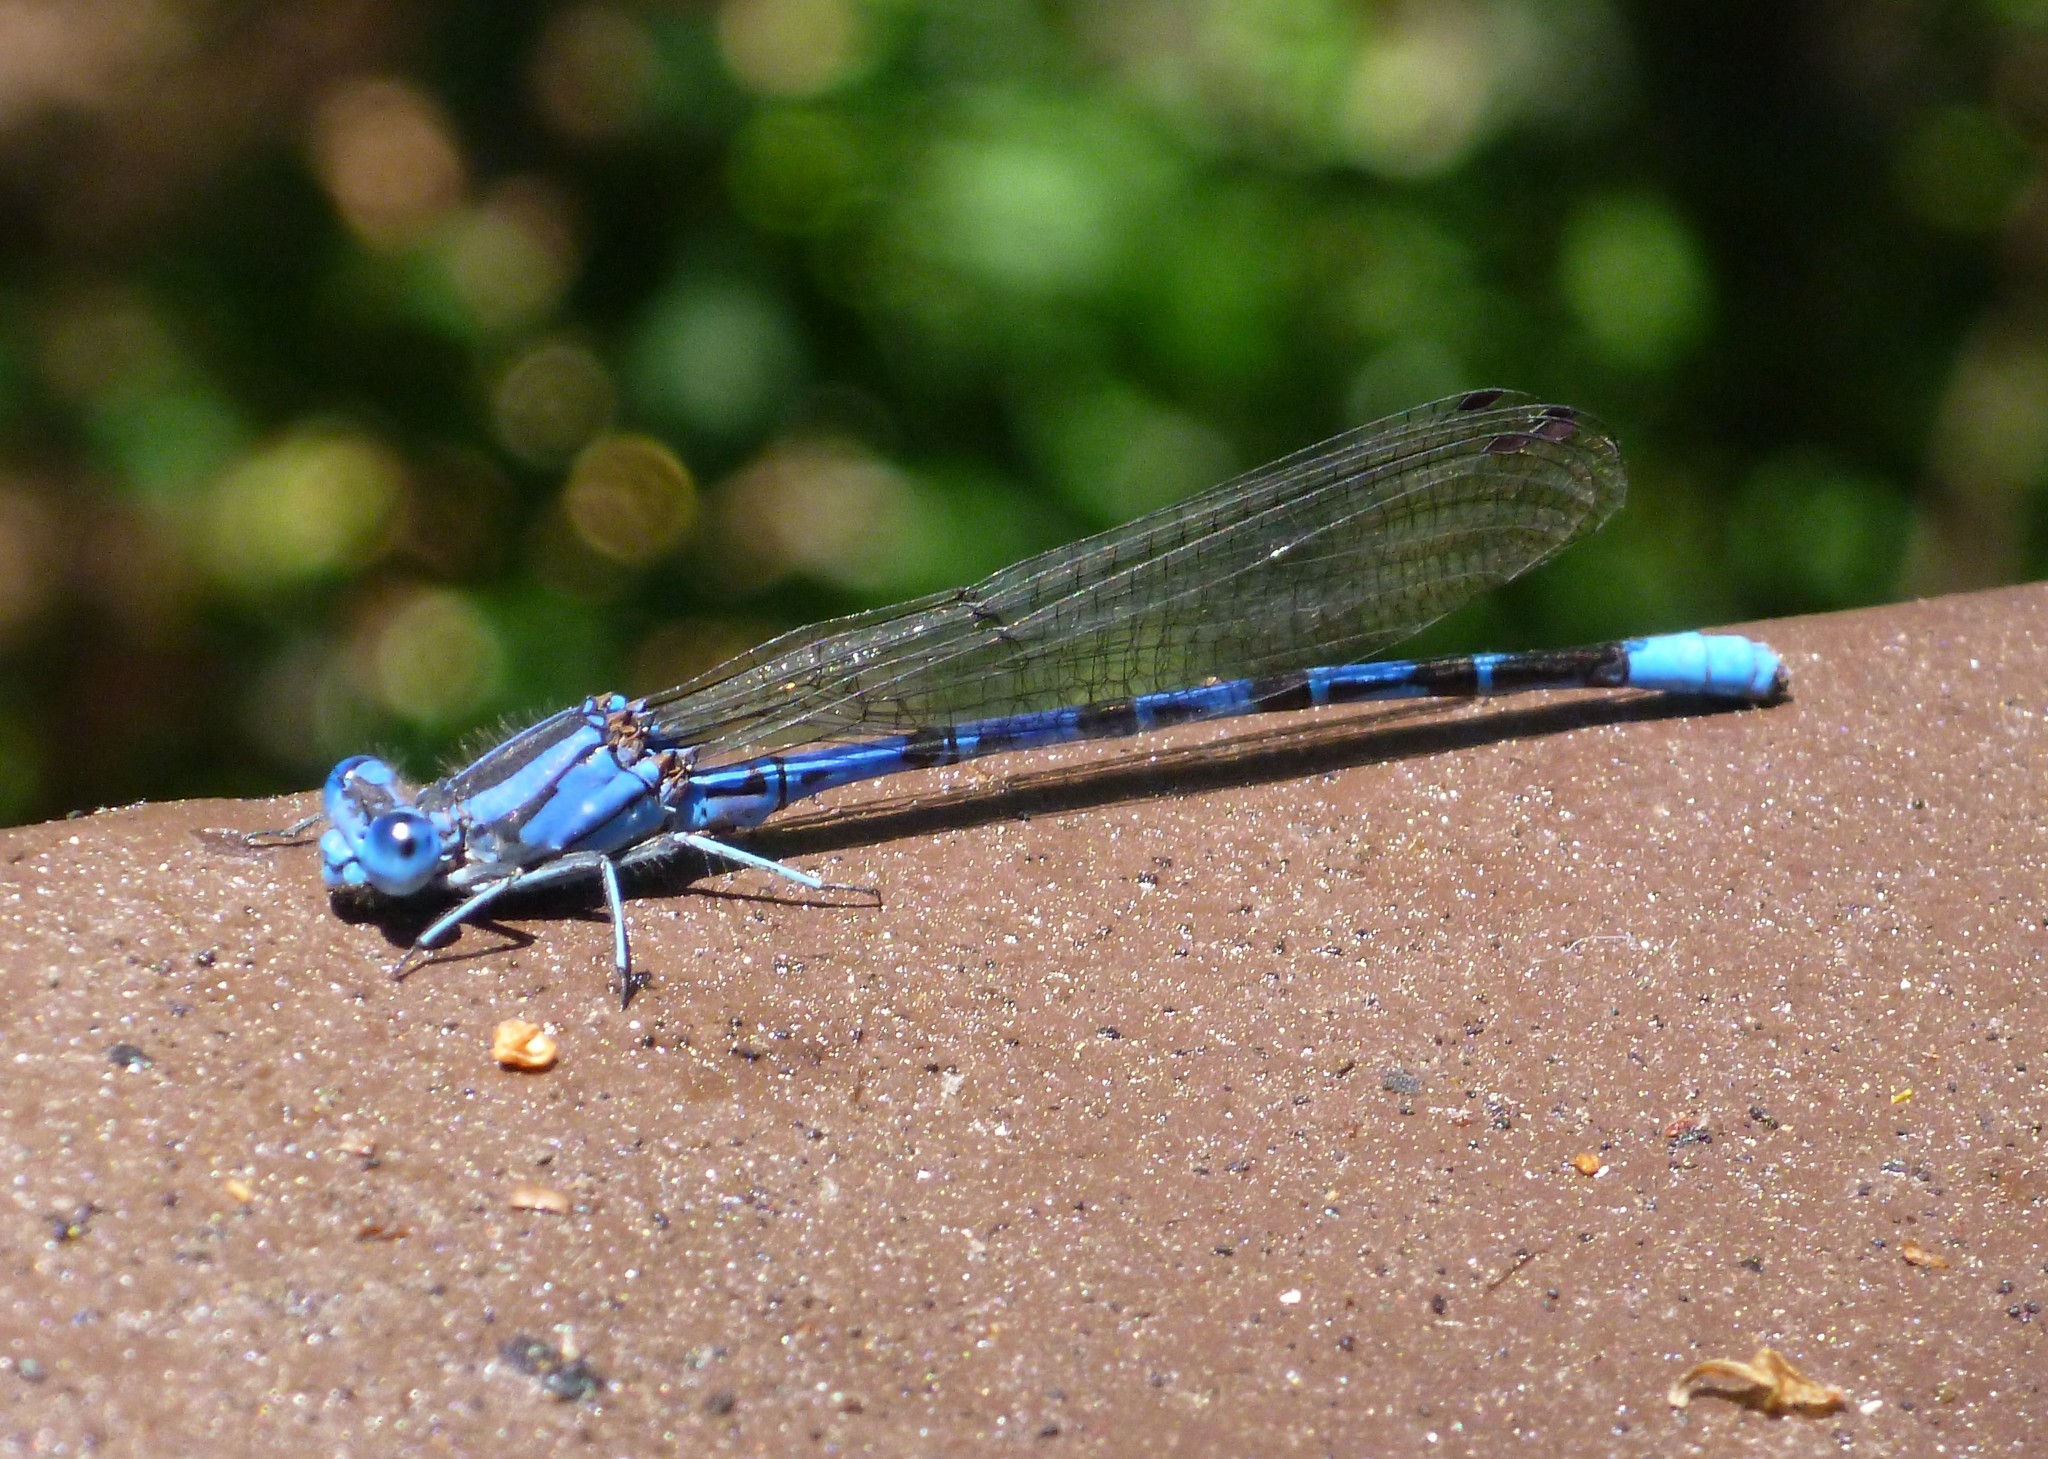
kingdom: Animalia
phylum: Arthropoda
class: Insecta
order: Odonata
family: Coenagrionidae
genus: Argia
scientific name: Argia vivida
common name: Vivid dancer
